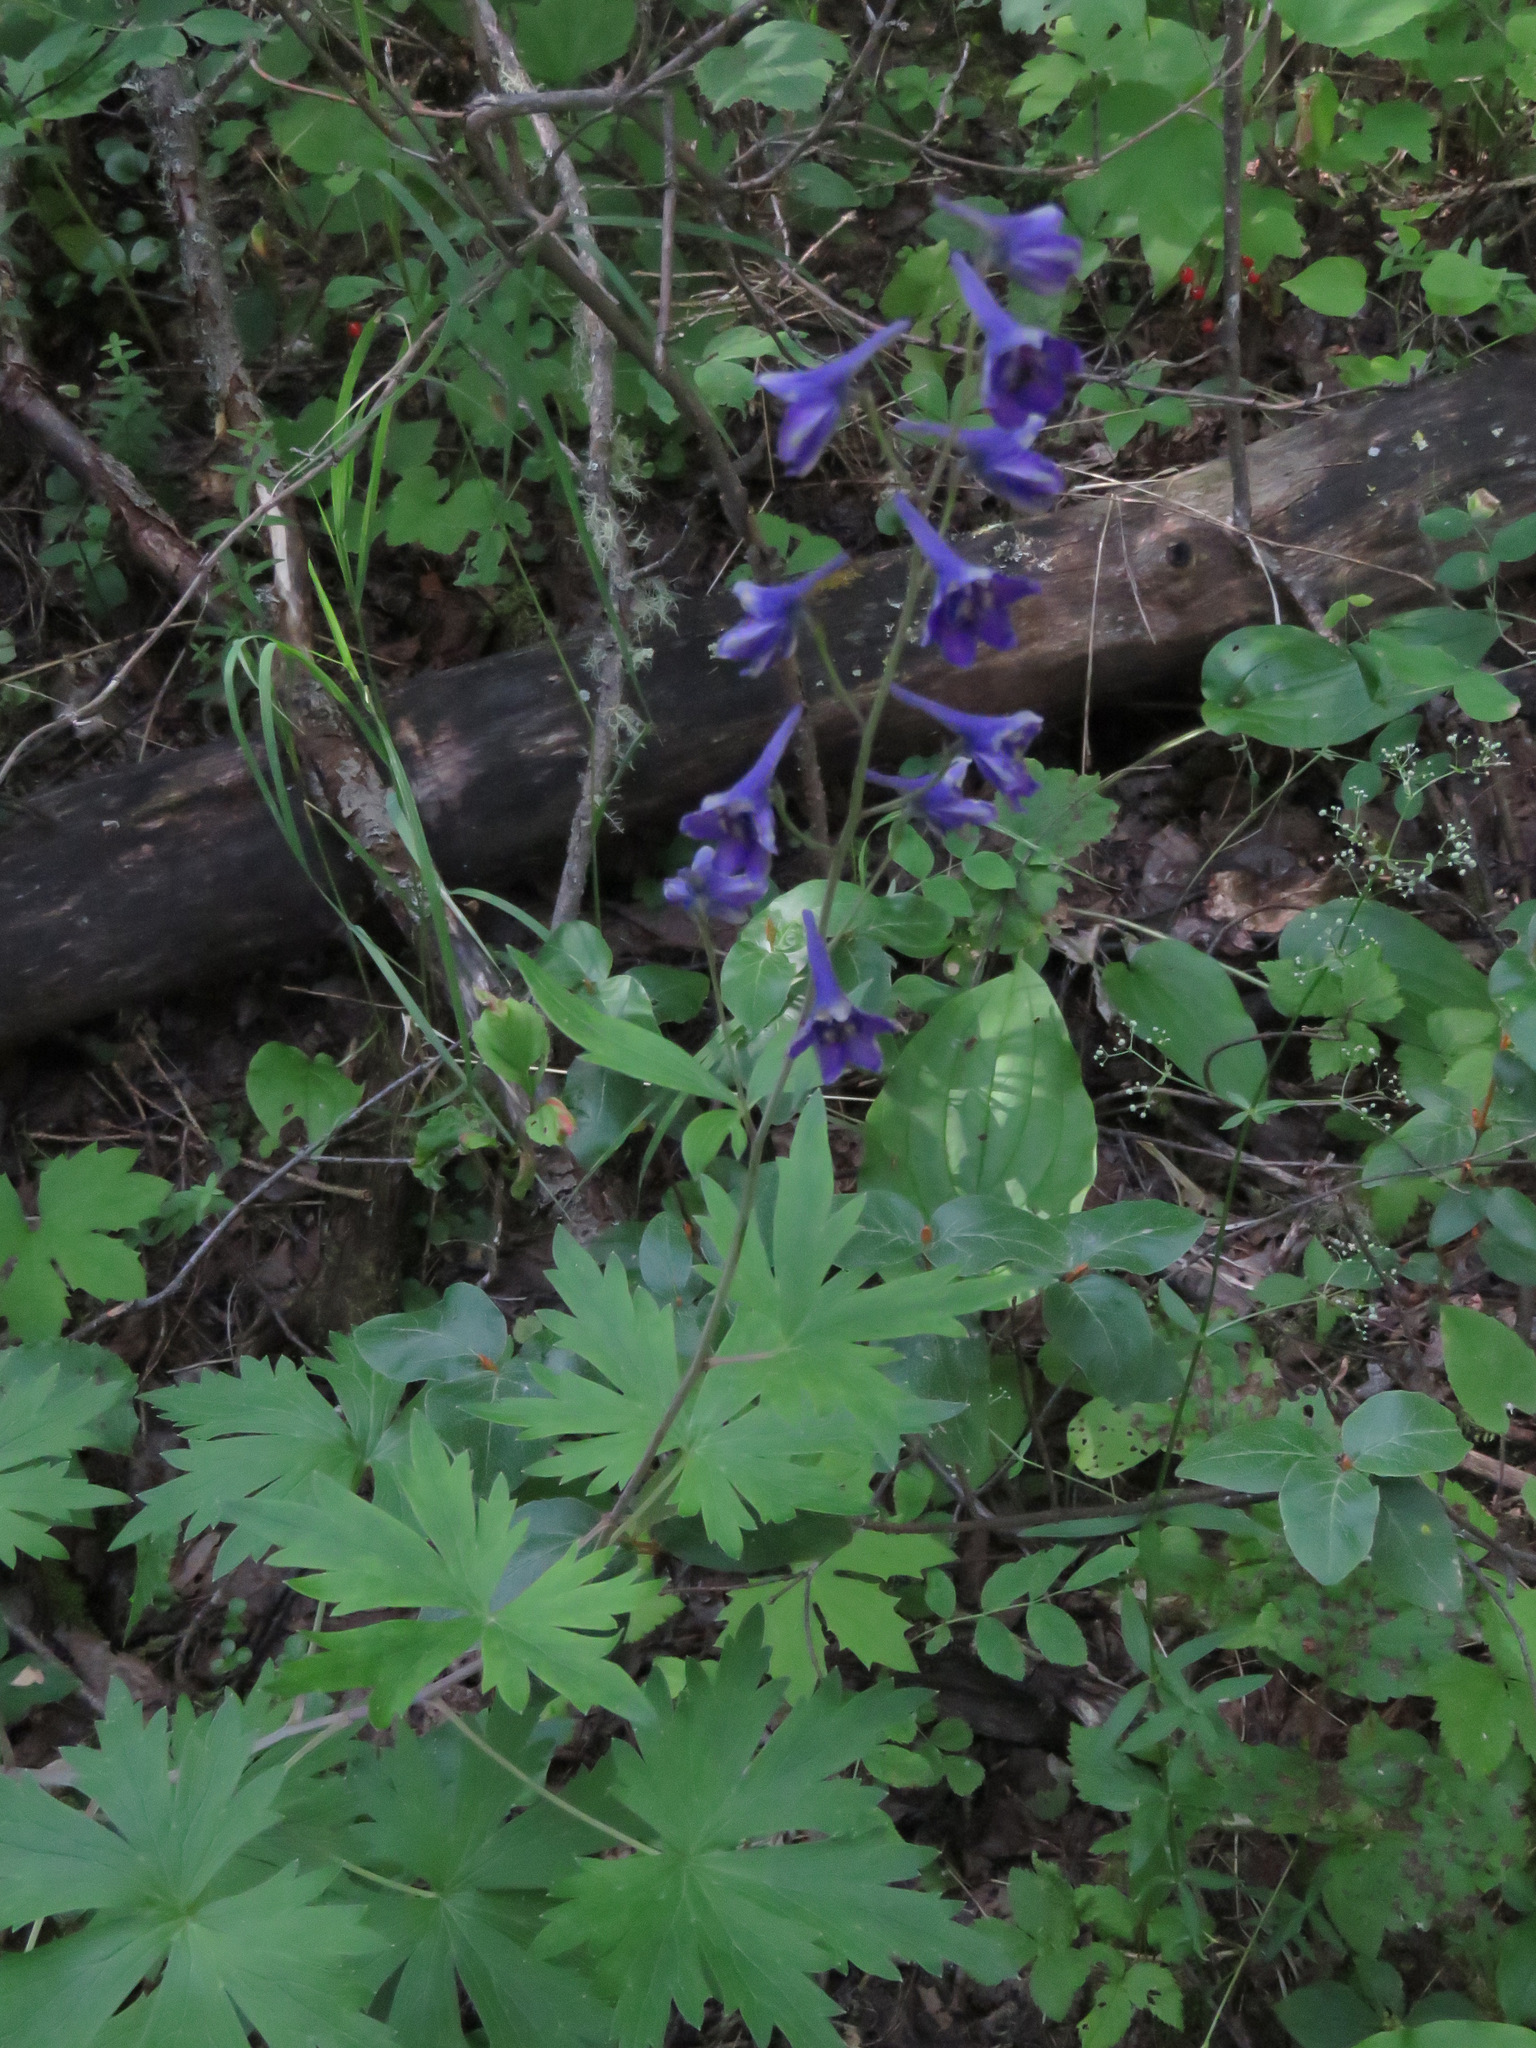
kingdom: Plantae
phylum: Tracheophyta
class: Magnoliopsida
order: Ranunculales
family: Ranunculaceae
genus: Delphinium
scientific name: Delphinium glaucum
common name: Brown's larkspur
